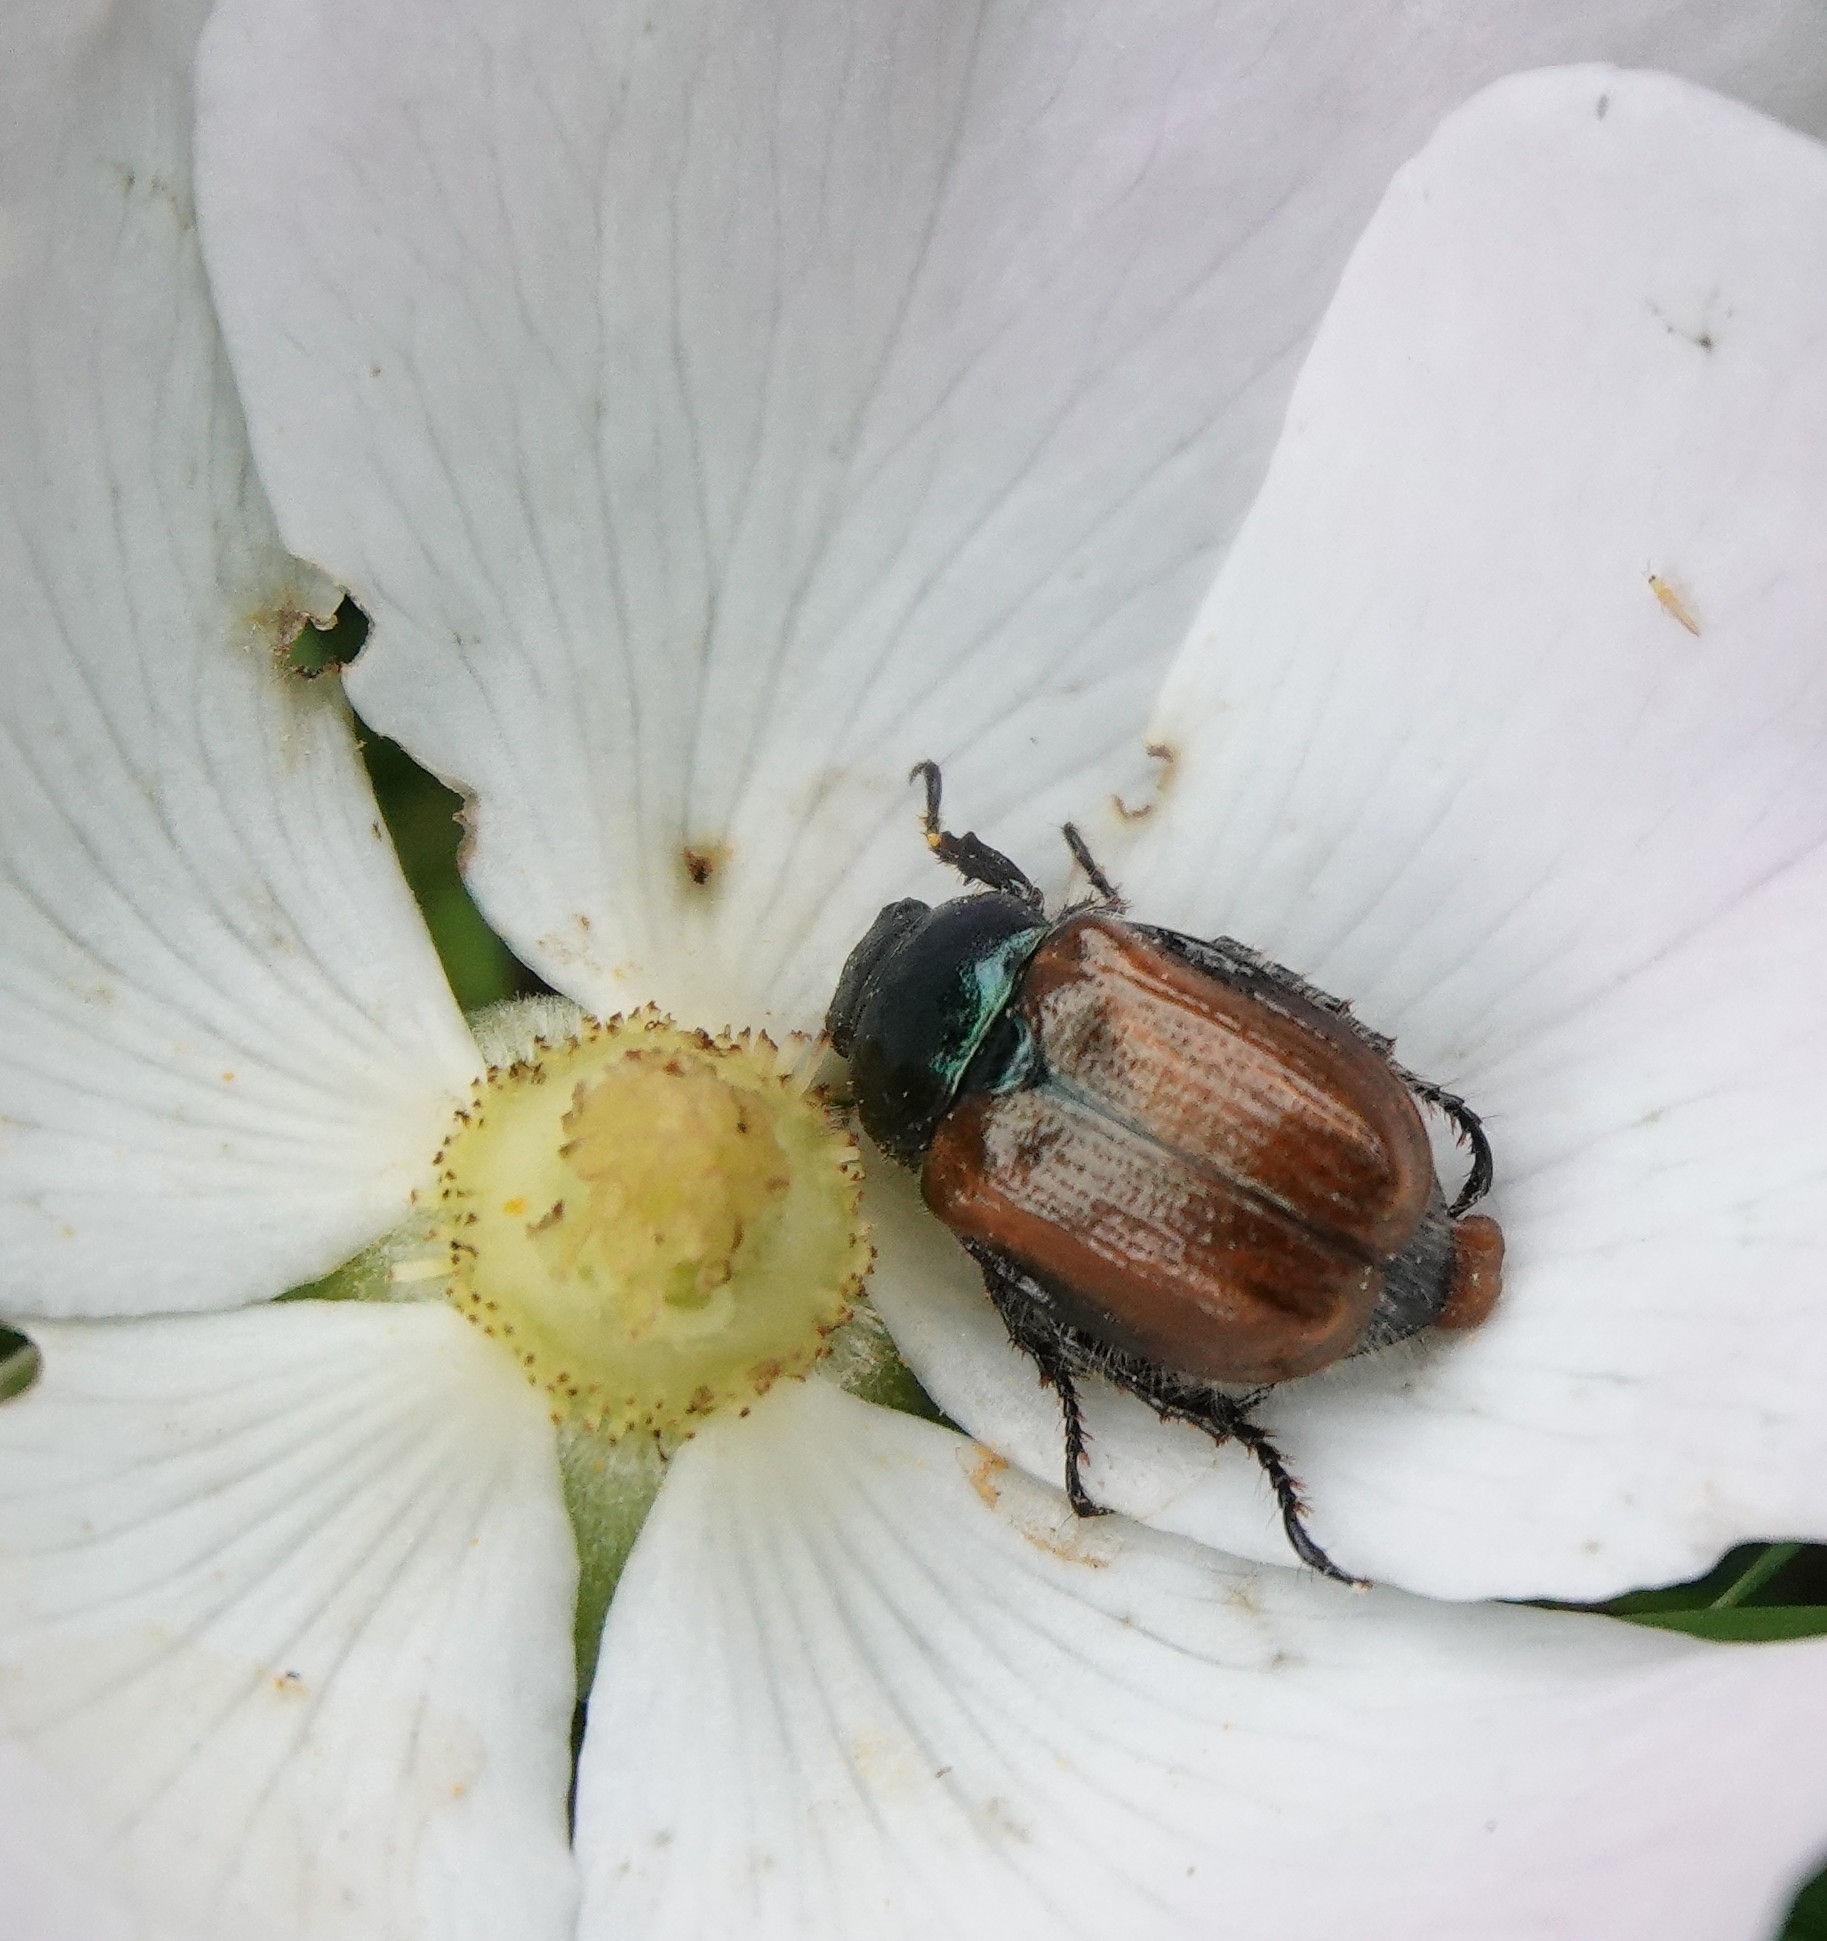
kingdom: Animalia
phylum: Arthropoda
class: Insecta
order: Coleoptera
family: Scarabaeidae
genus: Phyllopertha
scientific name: Phyllopertha horticola
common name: Garden chafer
